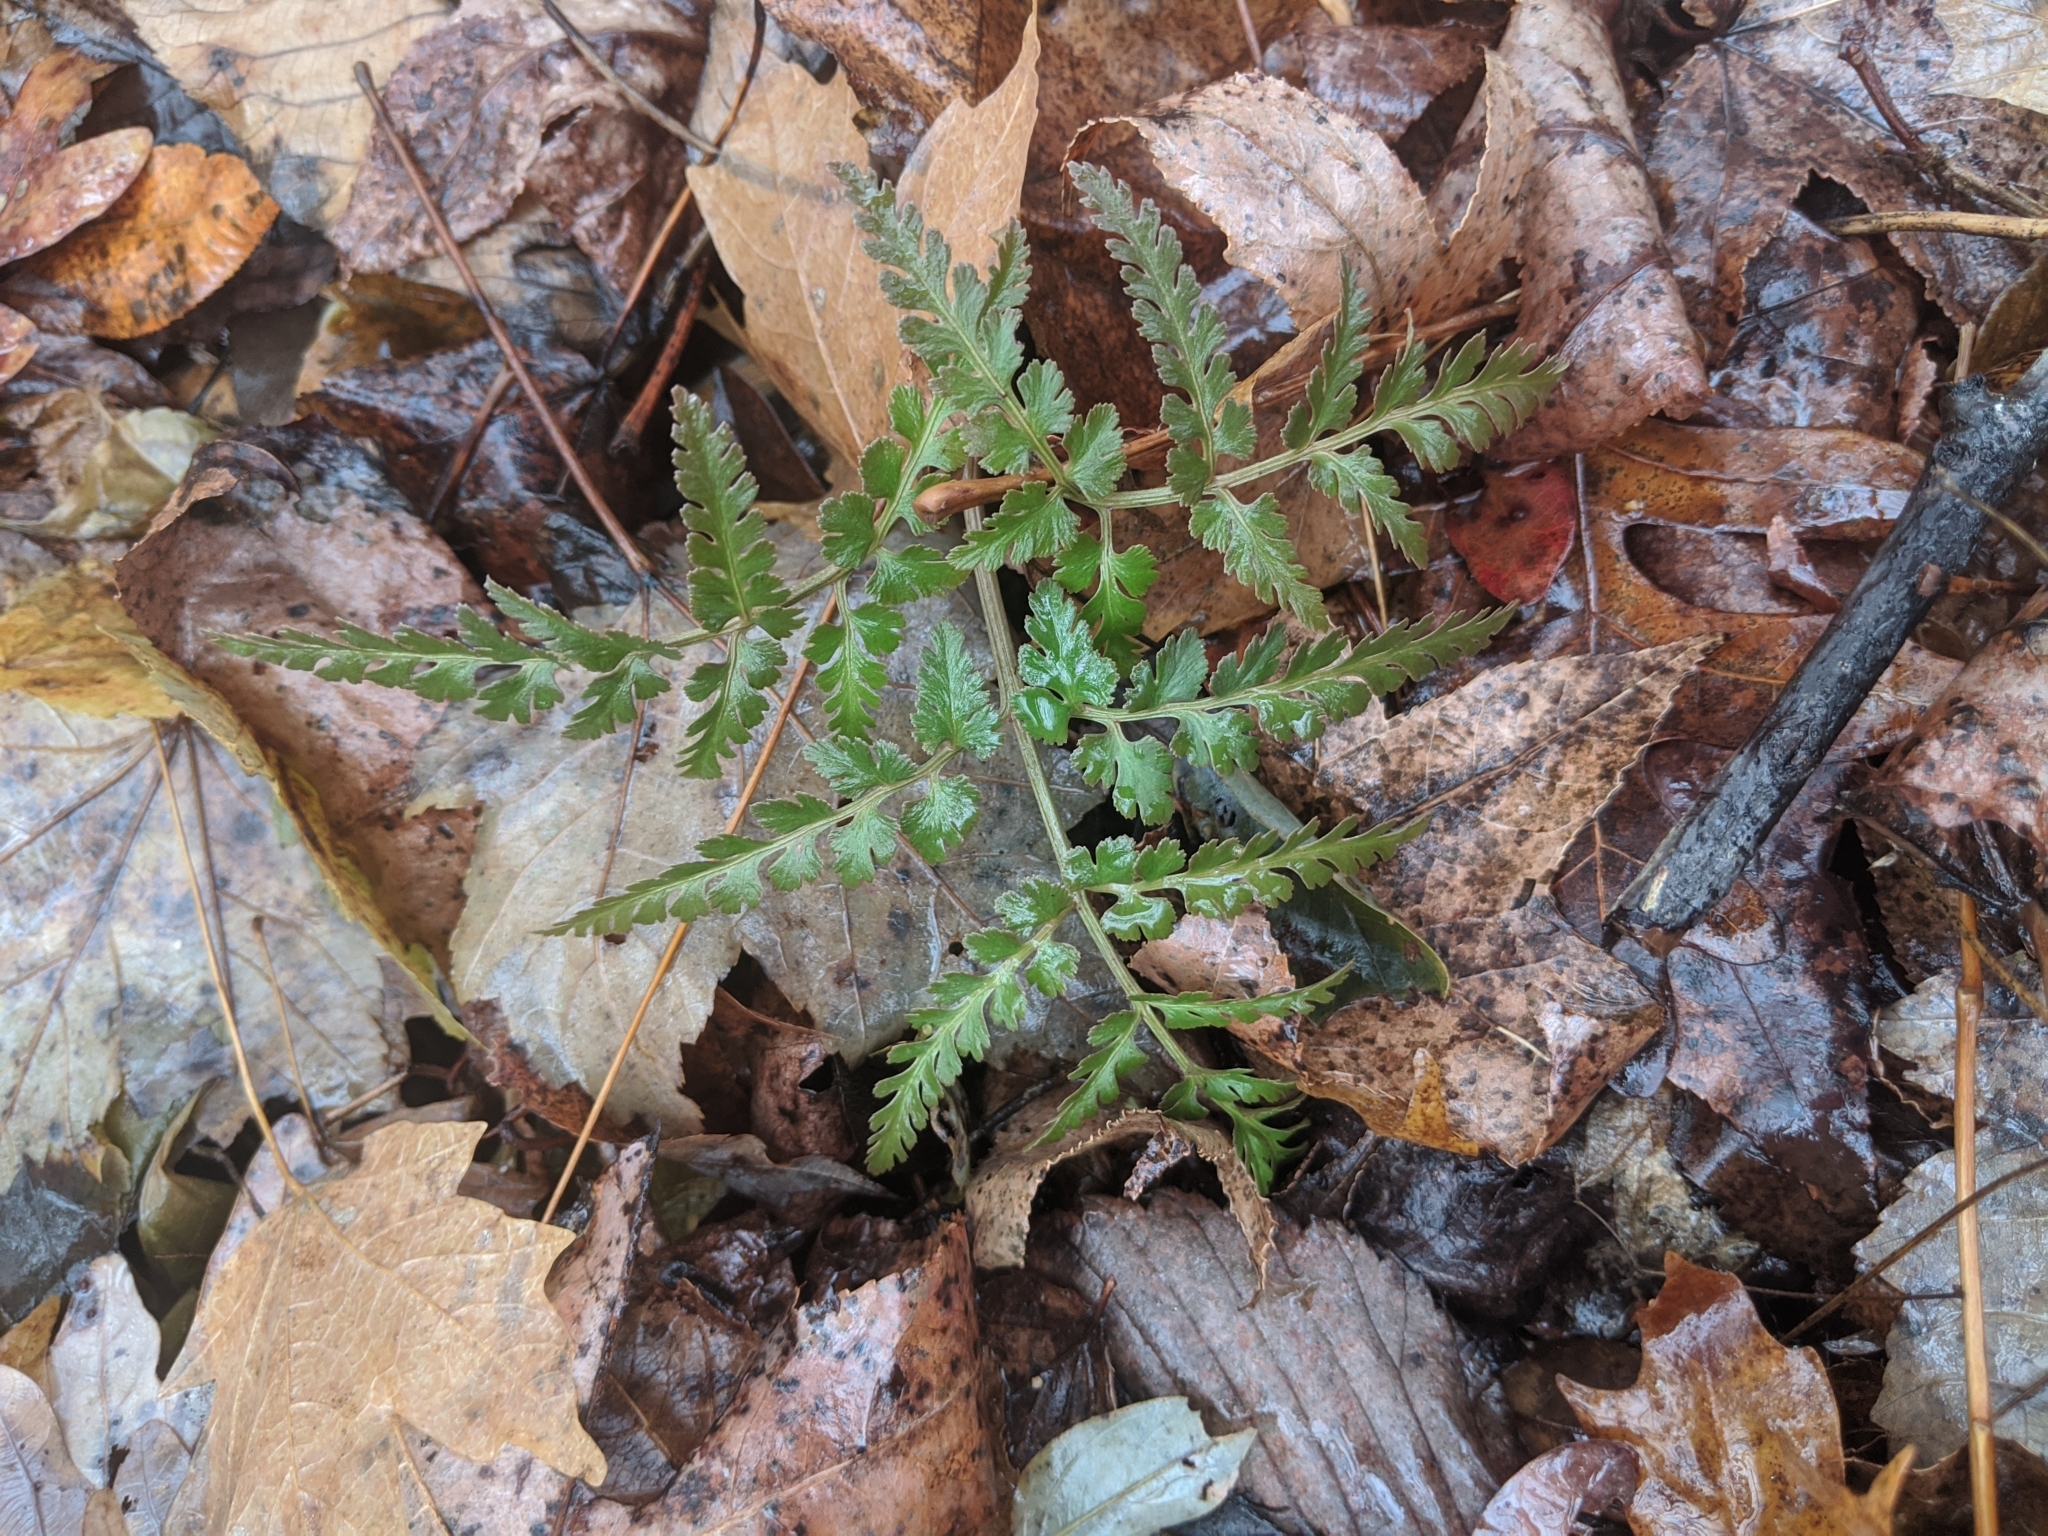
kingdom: Plantae
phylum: Tracheophyta
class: Polypodiopsida
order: Ophioglossales
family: Ophioglossaceae
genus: Sceptridium
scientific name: Sceptridium dissectum
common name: Cut-leaved grapefern
